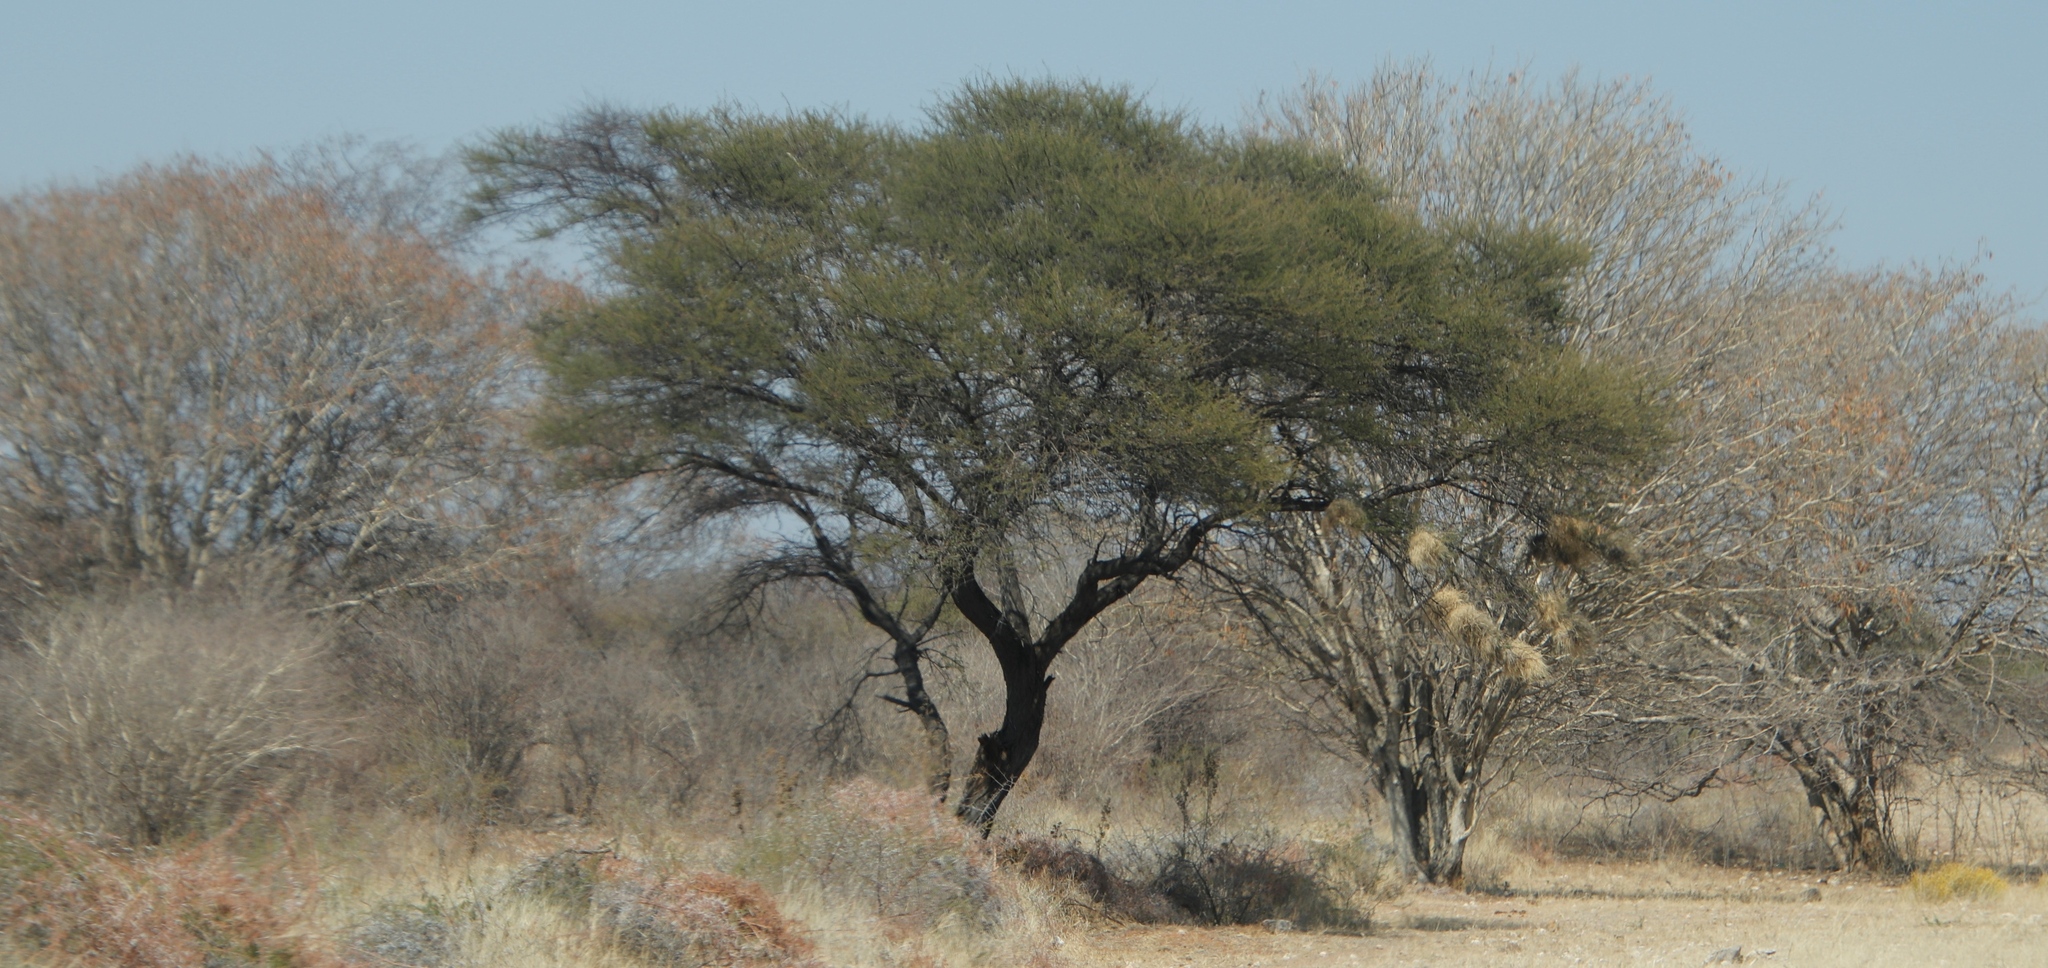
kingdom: Animalia
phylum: Chordata
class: Aves
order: Passeriformes
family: Passeridae
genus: Plocepasser
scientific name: Plocepasser mahali
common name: White-browed sparrow-weaver
